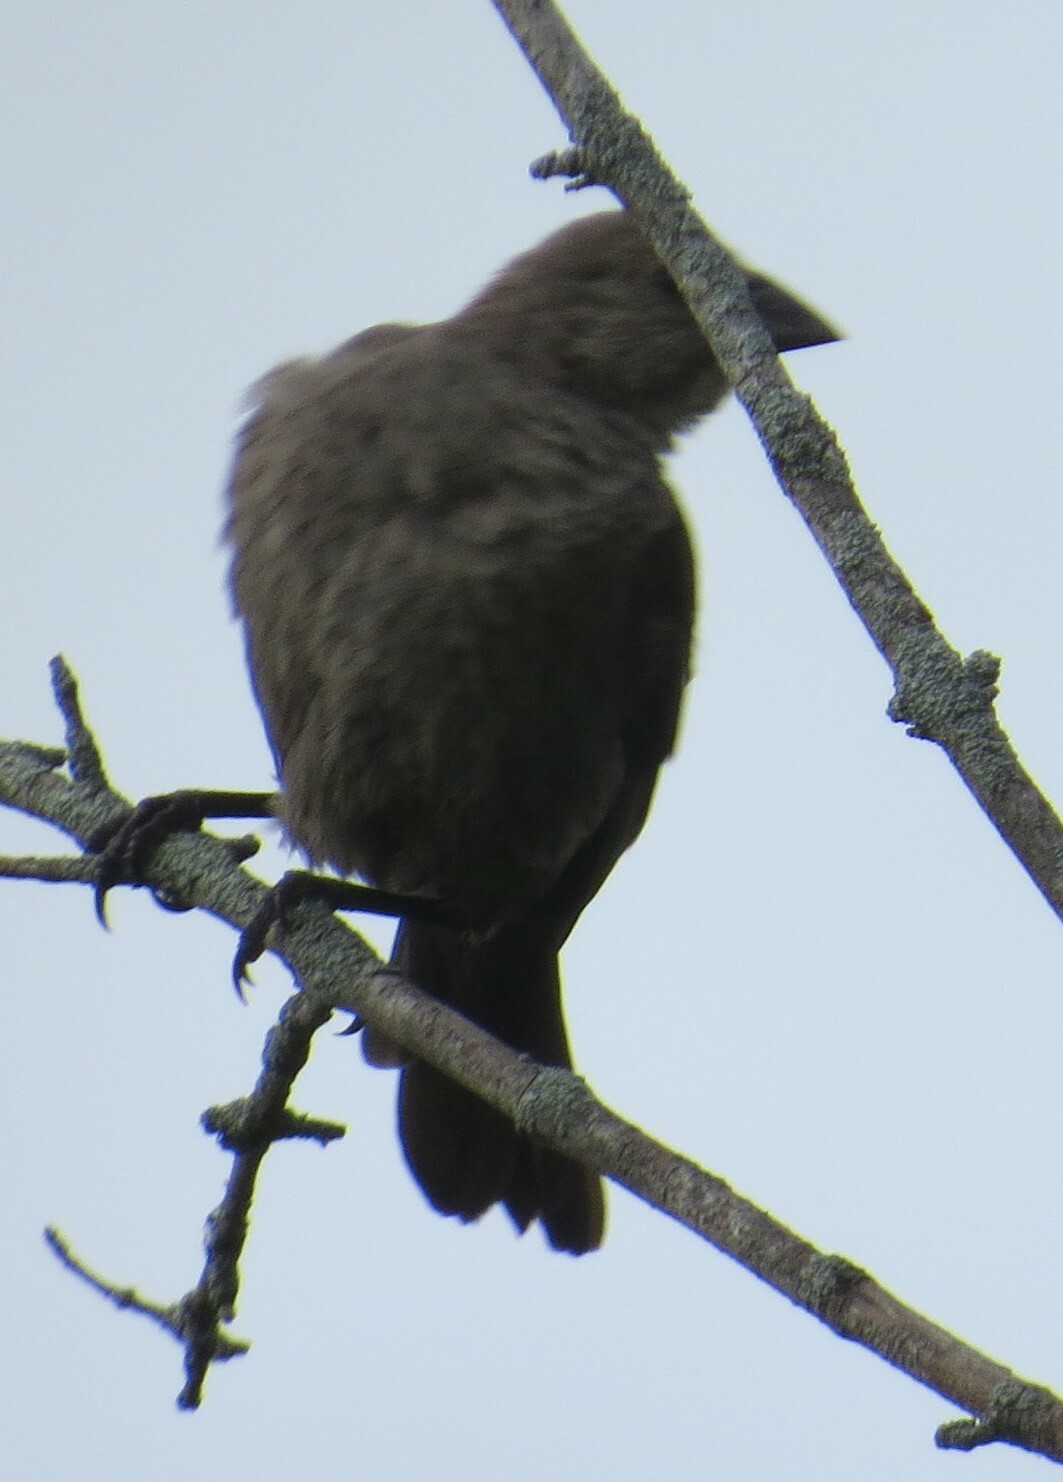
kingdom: Animalia
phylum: Chordata
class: Aves
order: Passeriformes
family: Icteridae
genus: Molothrus
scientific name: Molothrus ater
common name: Brown-headed cowbird
